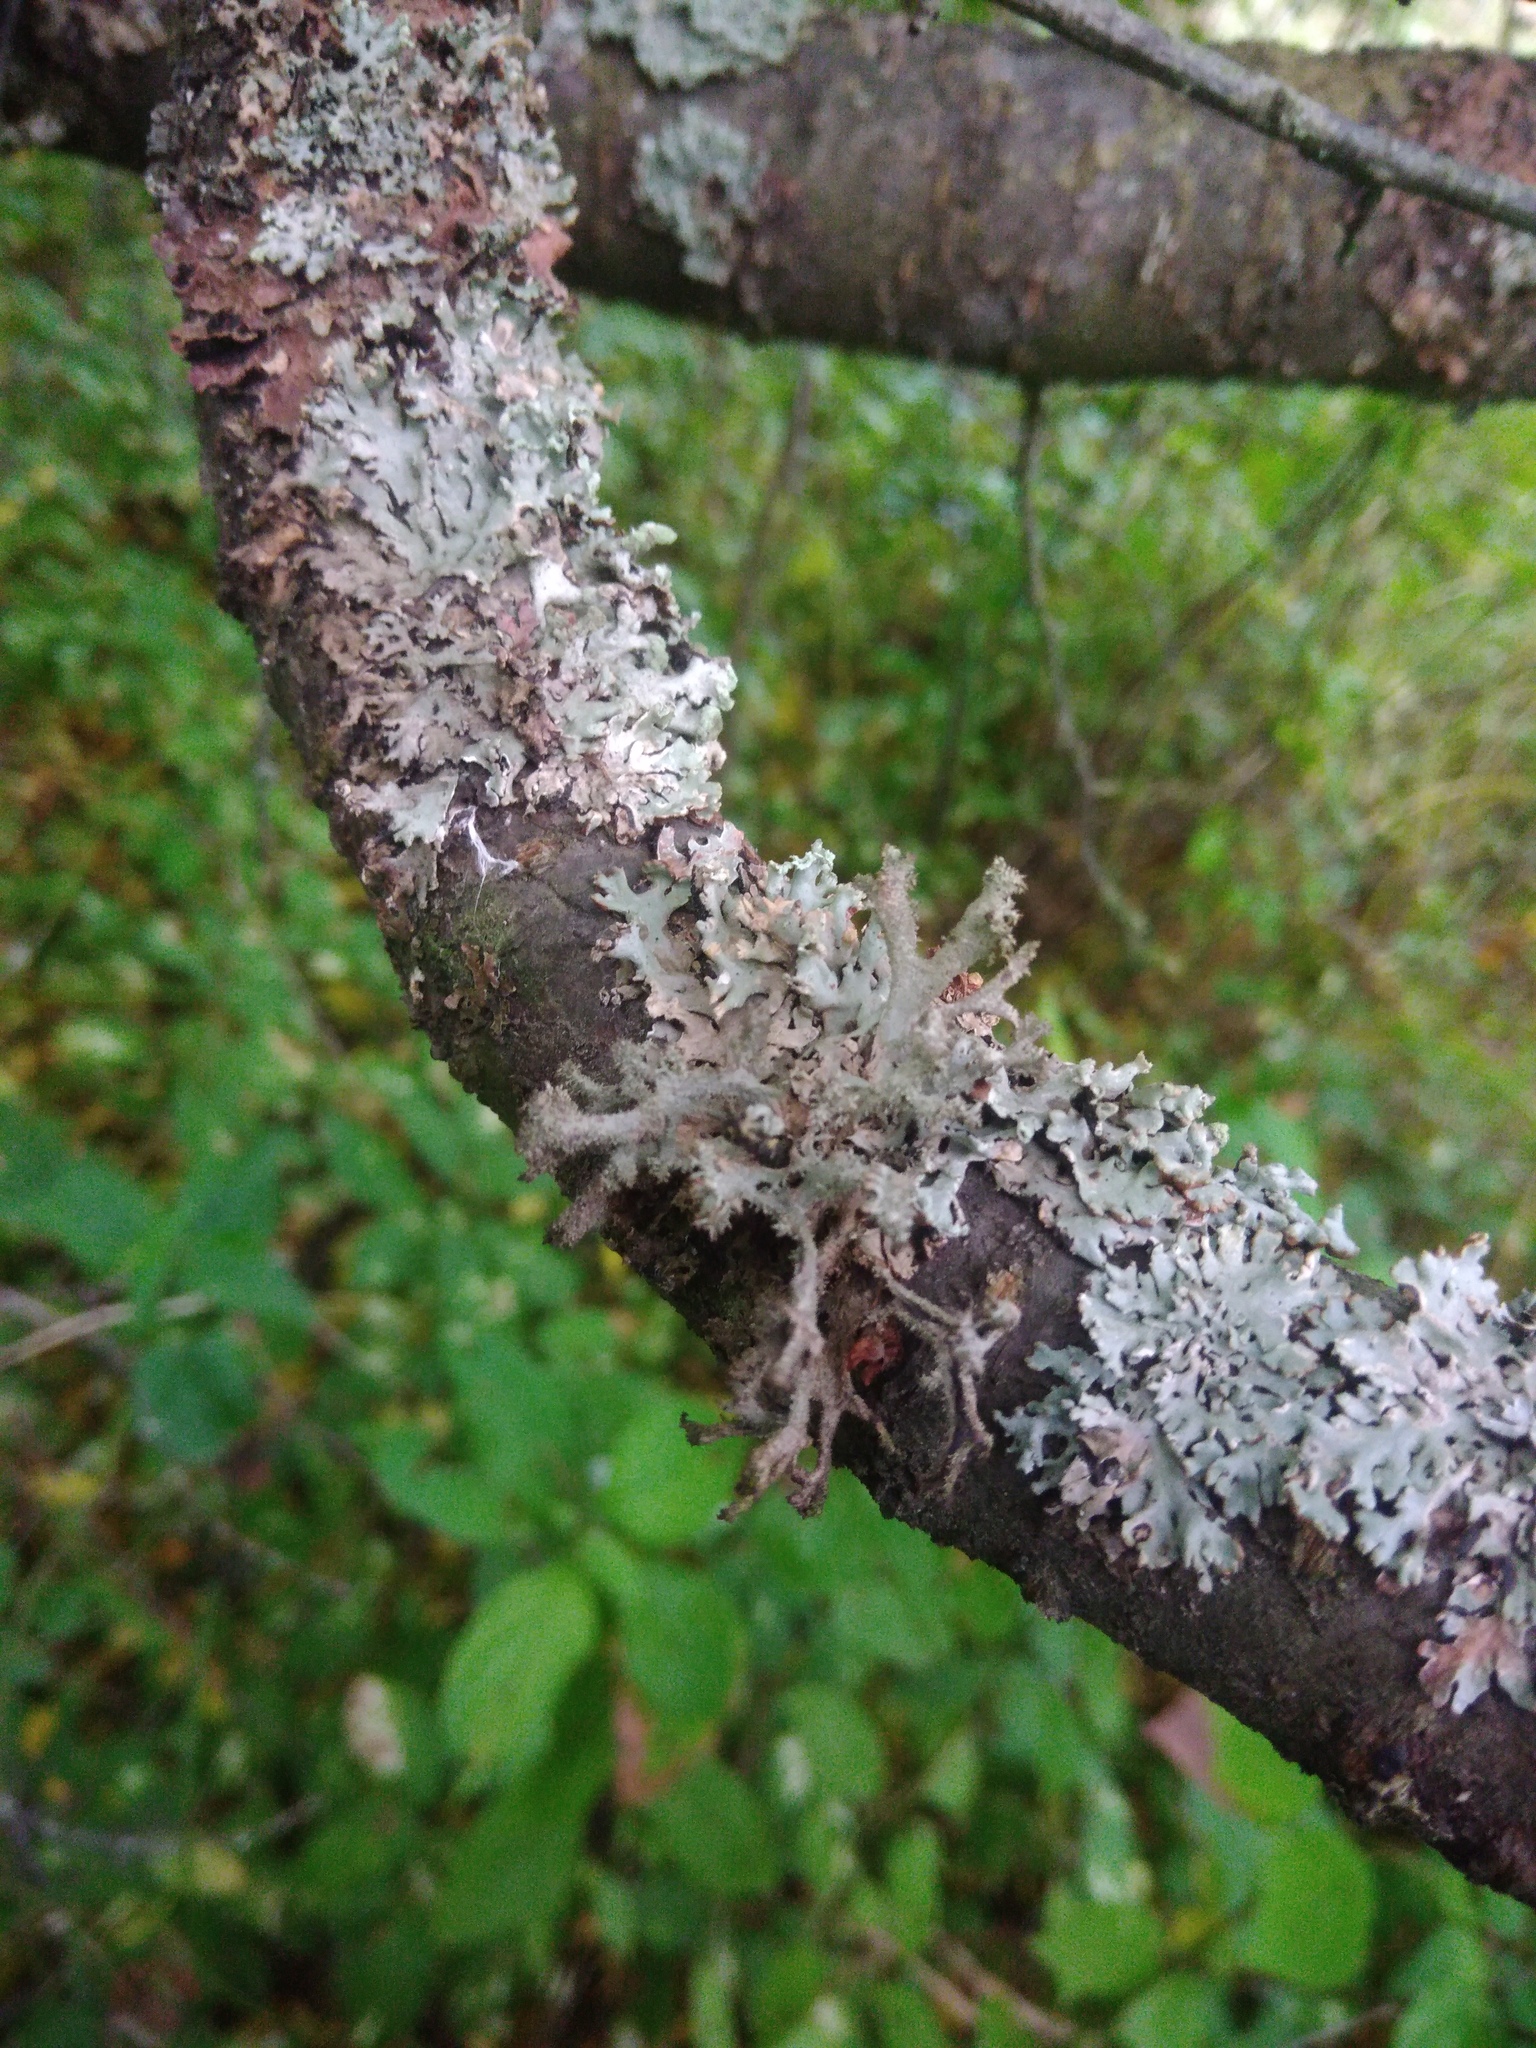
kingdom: Fungi
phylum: Ascomycota
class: Lecanoromycetes
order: Lecanorales
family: Parmeliaceae
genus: Pseudevernia
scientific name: Pseudevernia furfuracea
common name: Tree moss
